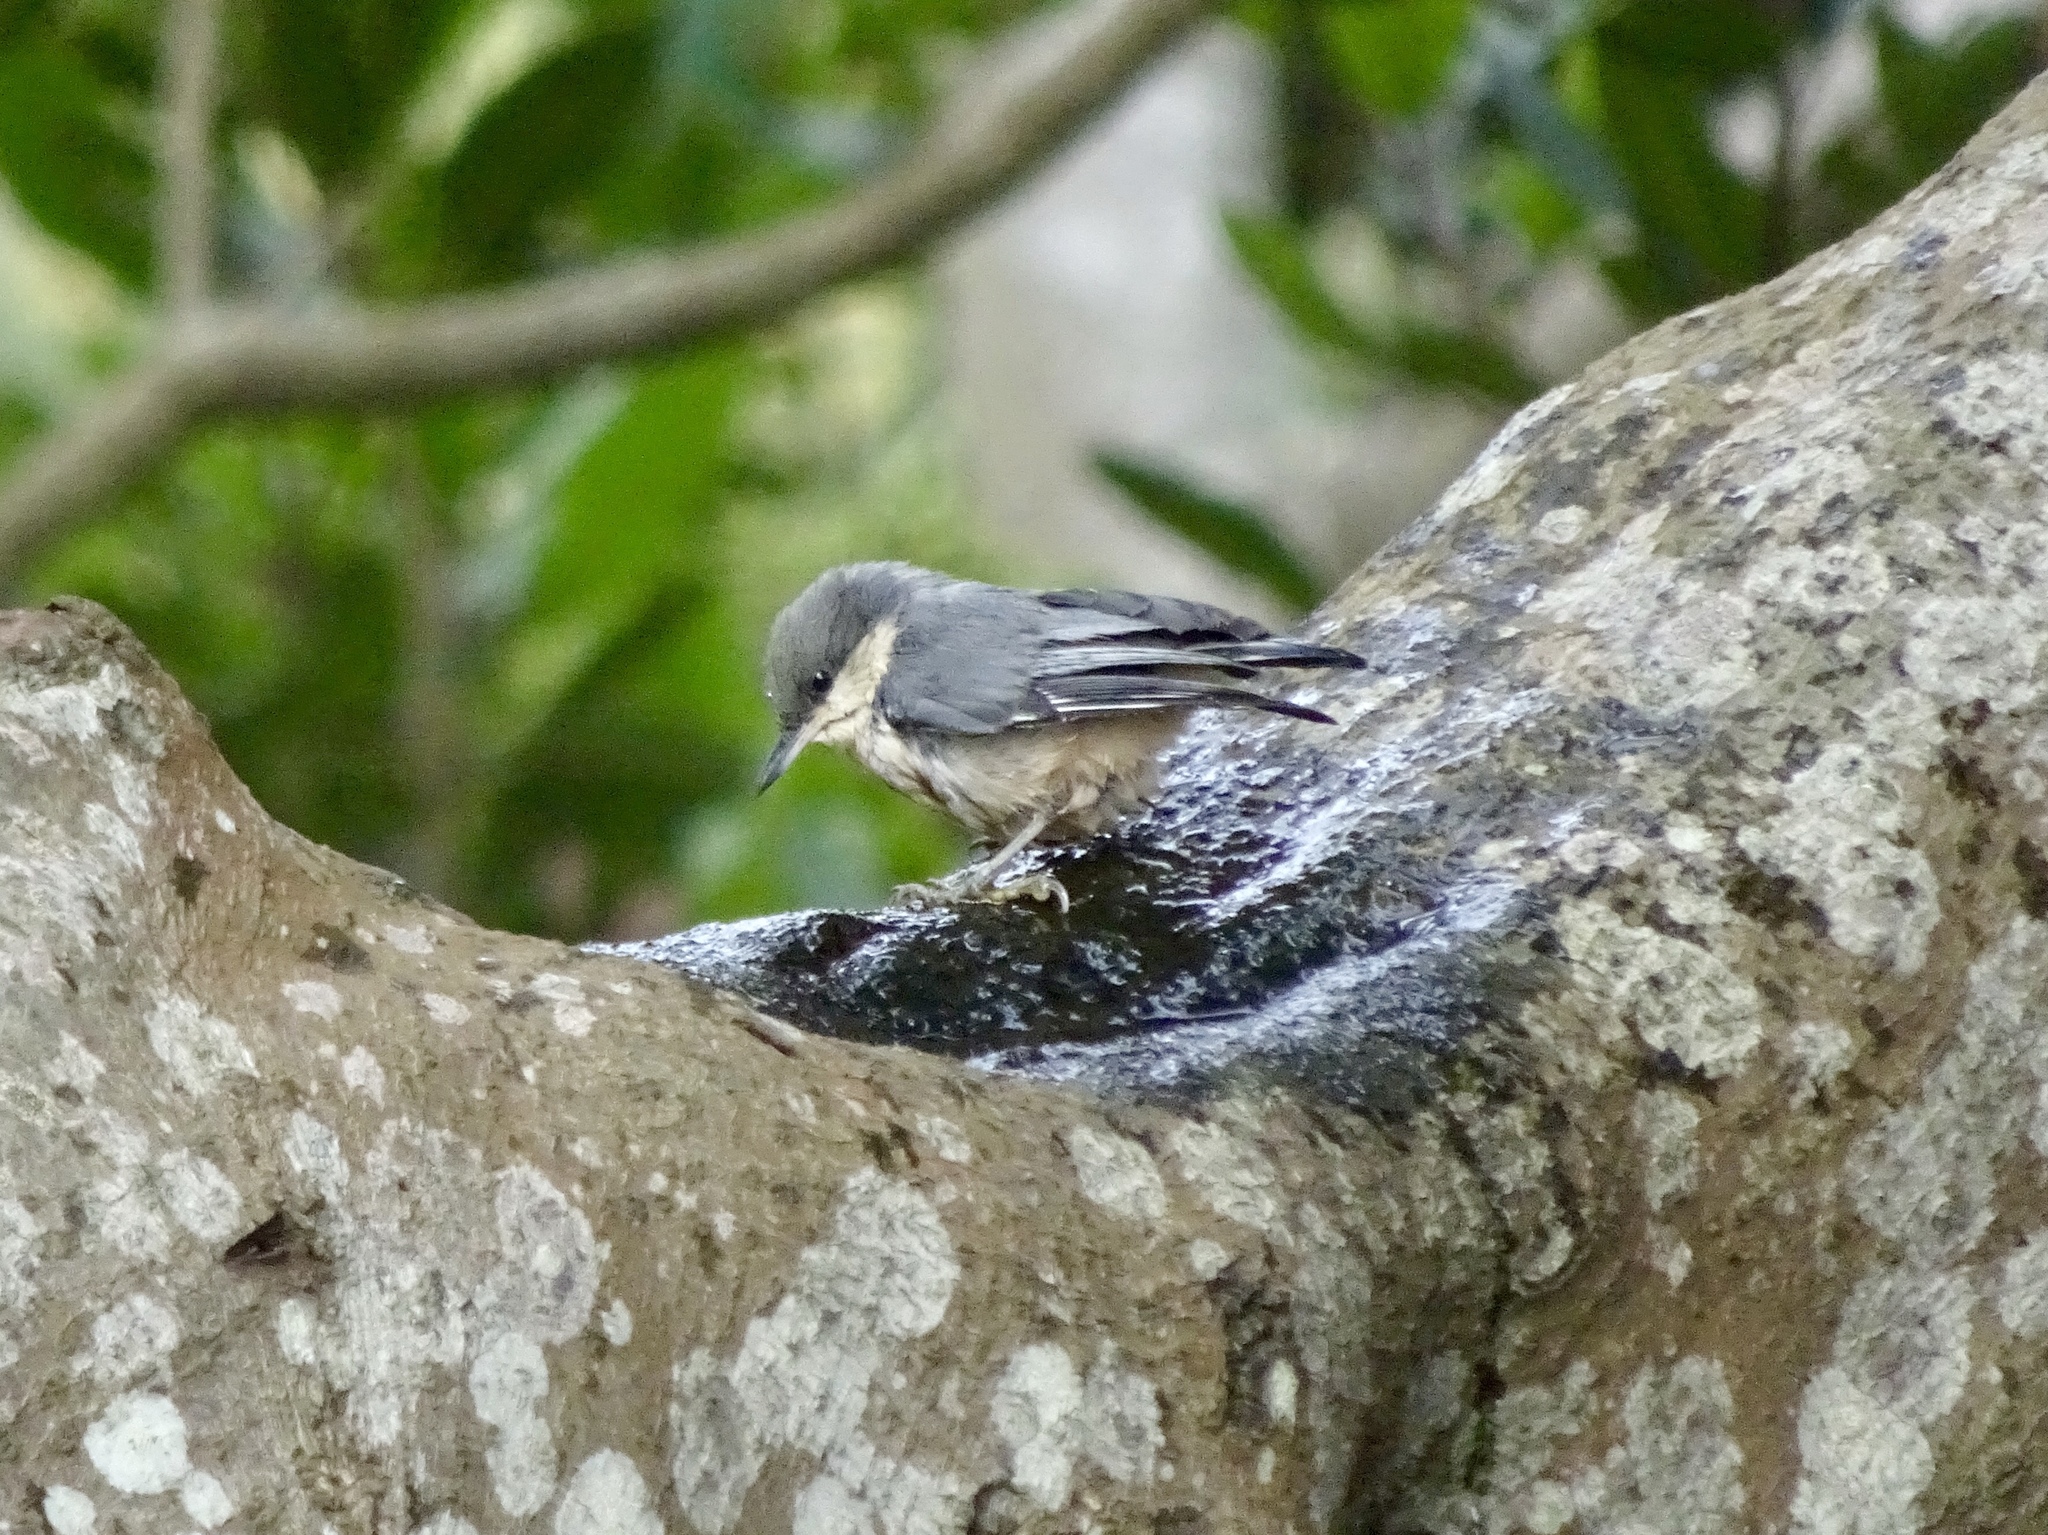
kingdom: Animalia
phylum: Chordata
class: Aves
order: Passeriformes
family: Sittidae
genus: Sitta
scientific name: Sitta pygmaea
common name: Pygmy nuthatch
